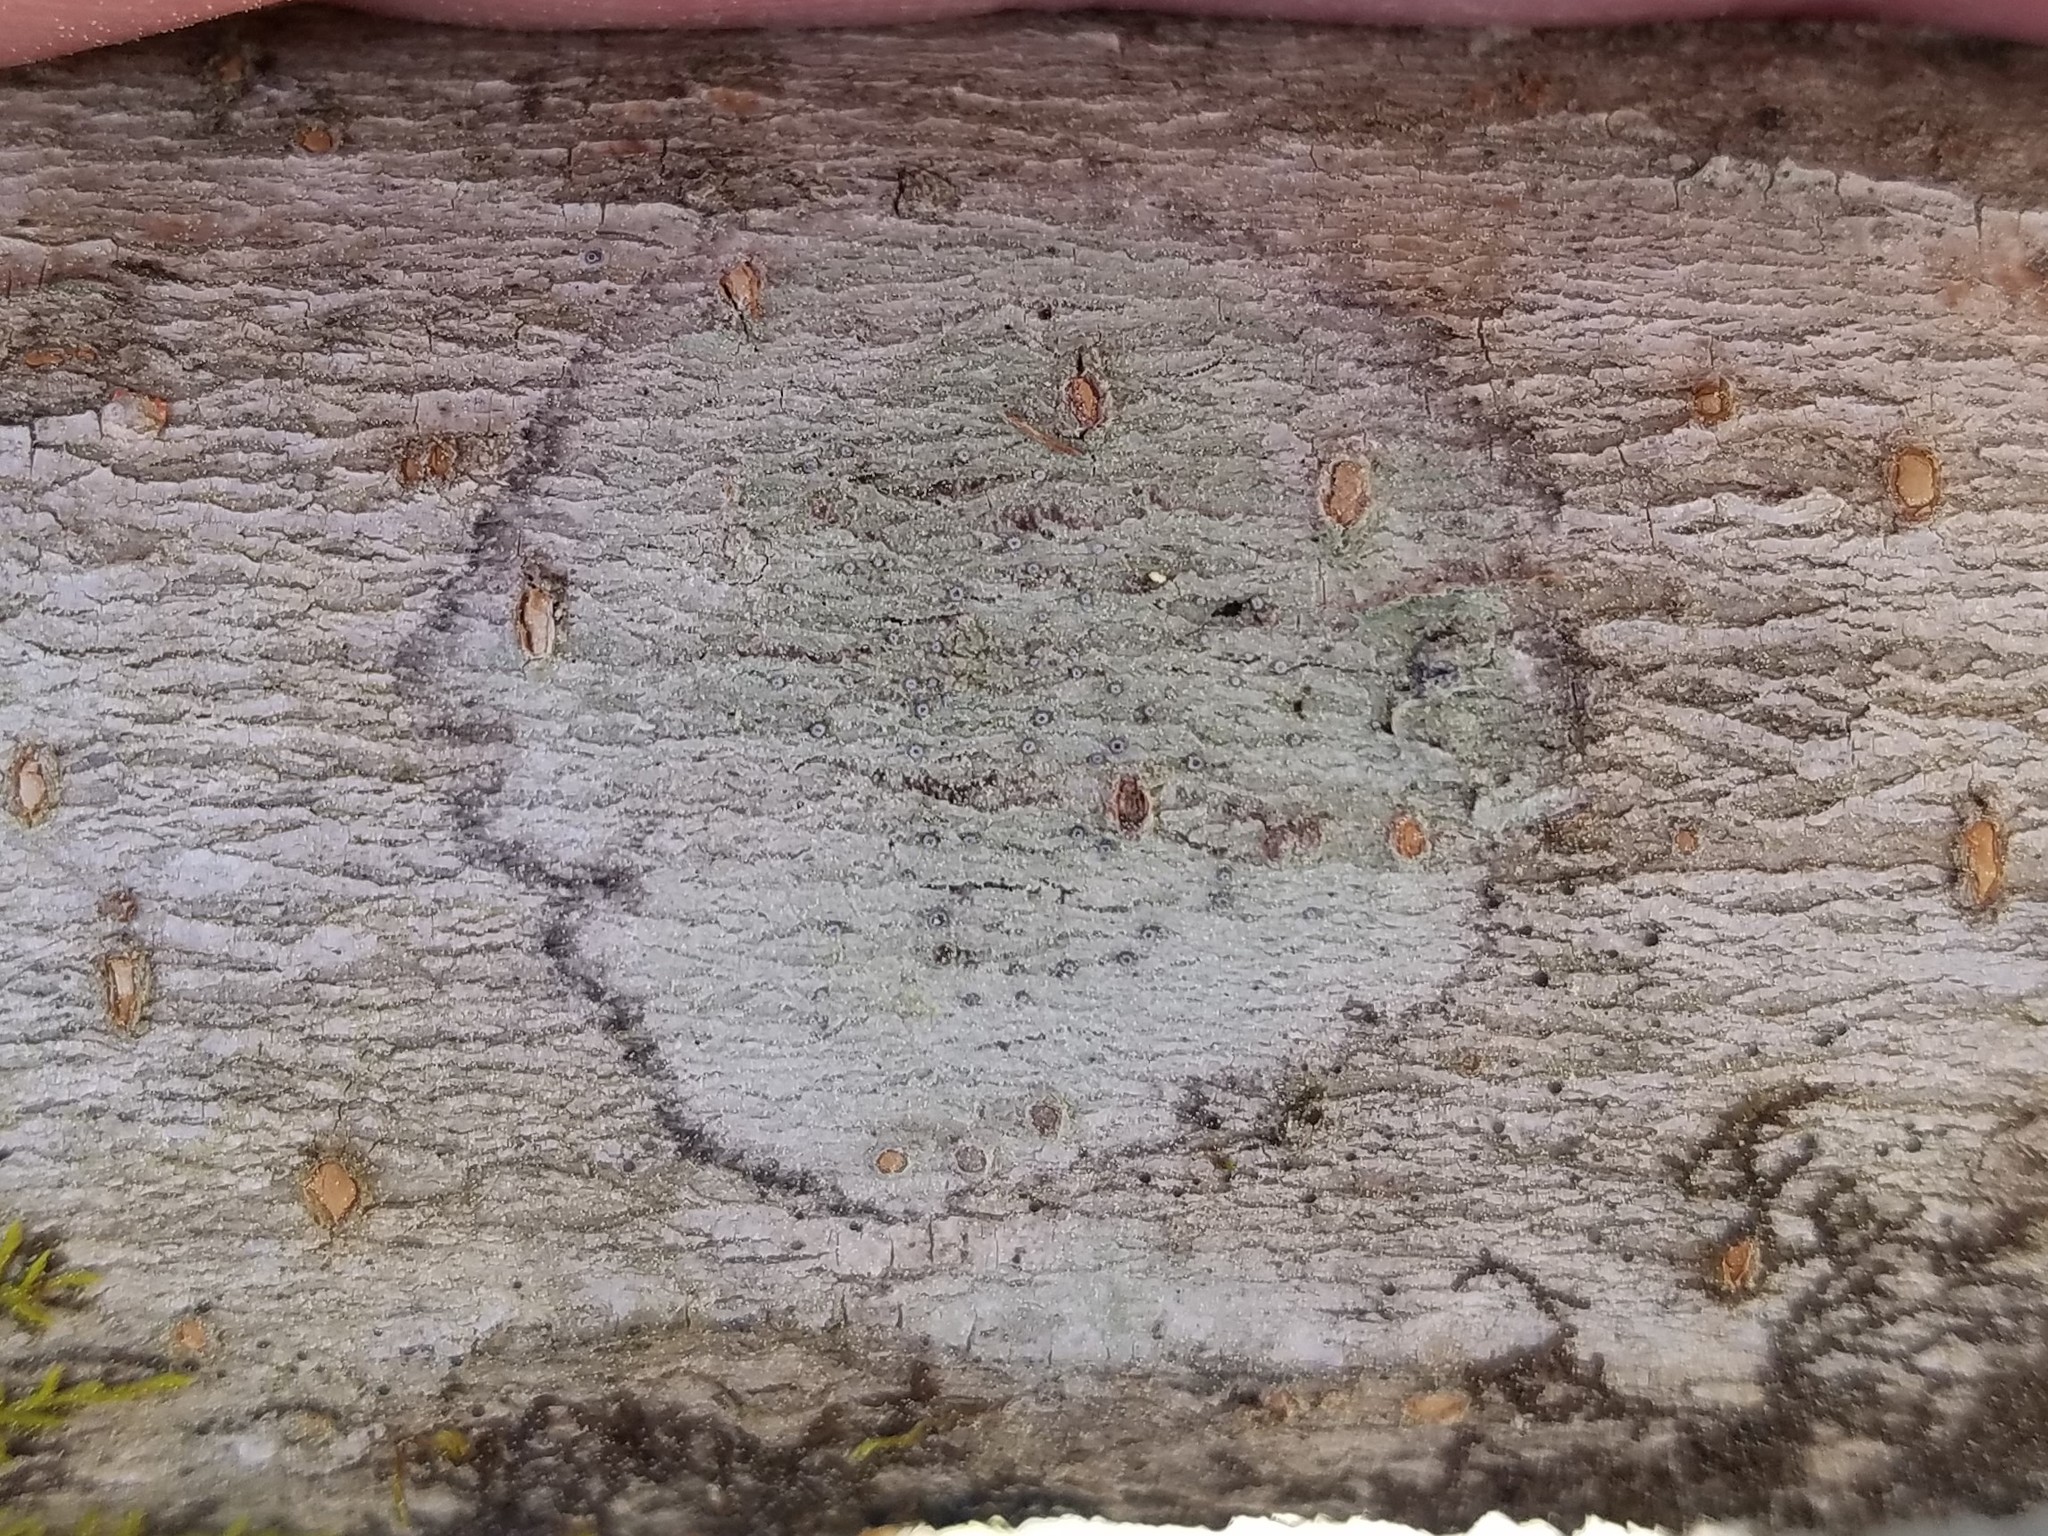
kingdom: Fungi
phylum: Ascomycota
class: Lecanoromycetes
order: Lecanorales
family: Ramalinaceae
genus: Bacidia
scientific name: Bacidia suffusa
